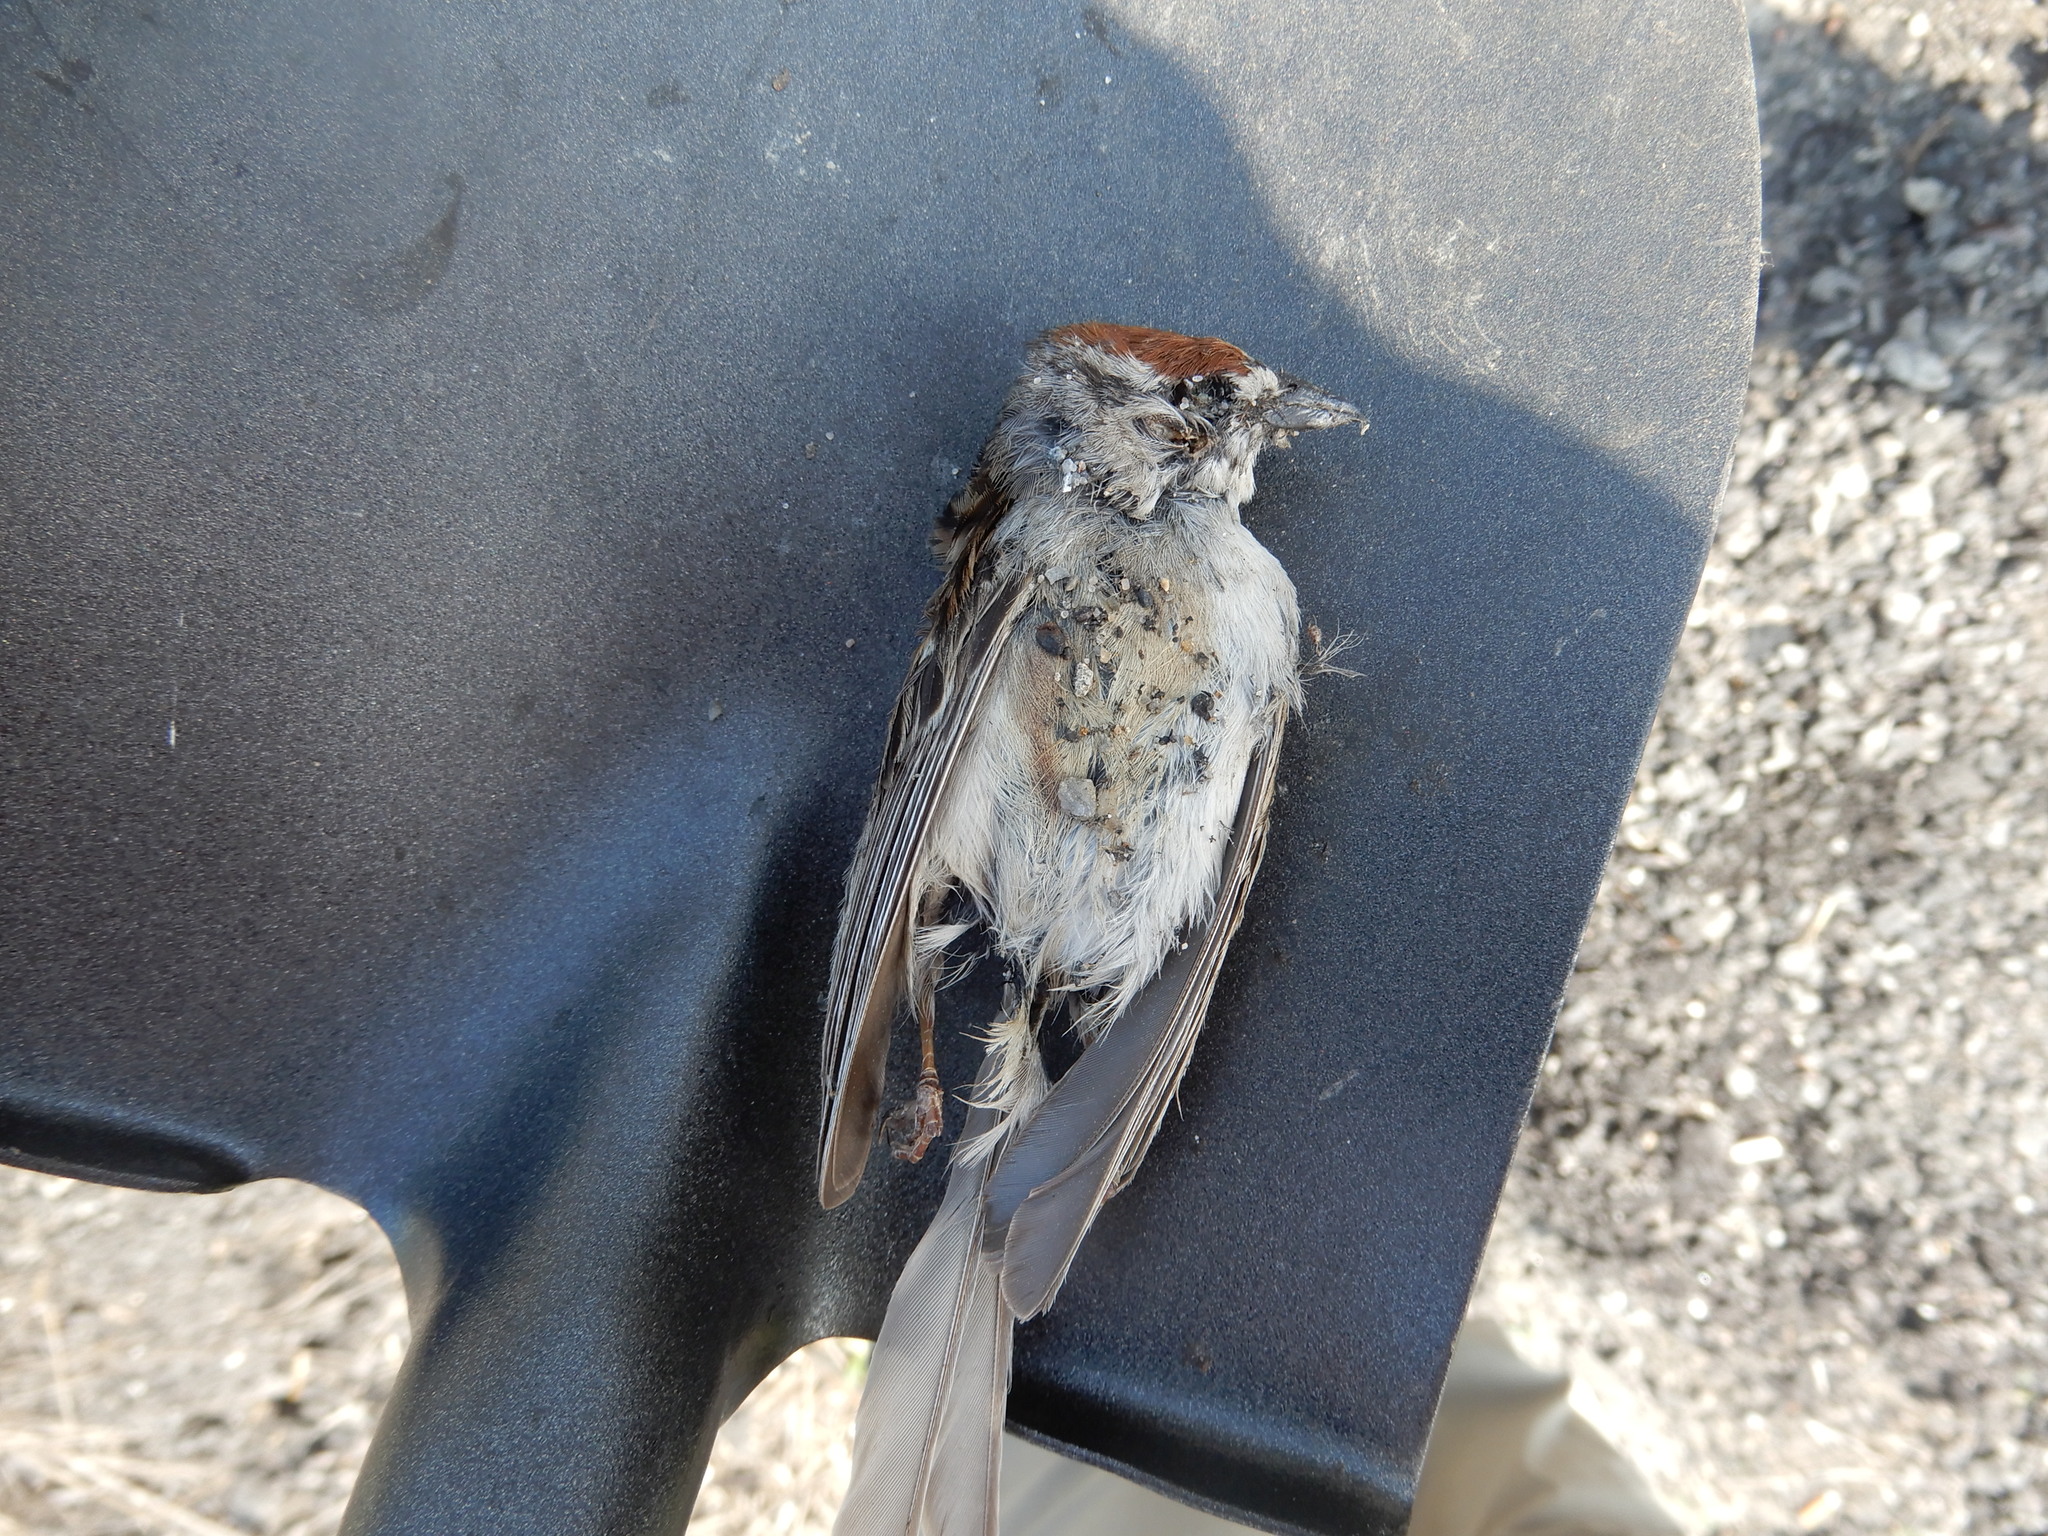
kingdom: Animalia
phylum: Chordata
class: Aves
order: Passeriformes
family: Passerellidae
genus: Spizella
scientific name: Spizella passerina
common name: Chipping sparrow
